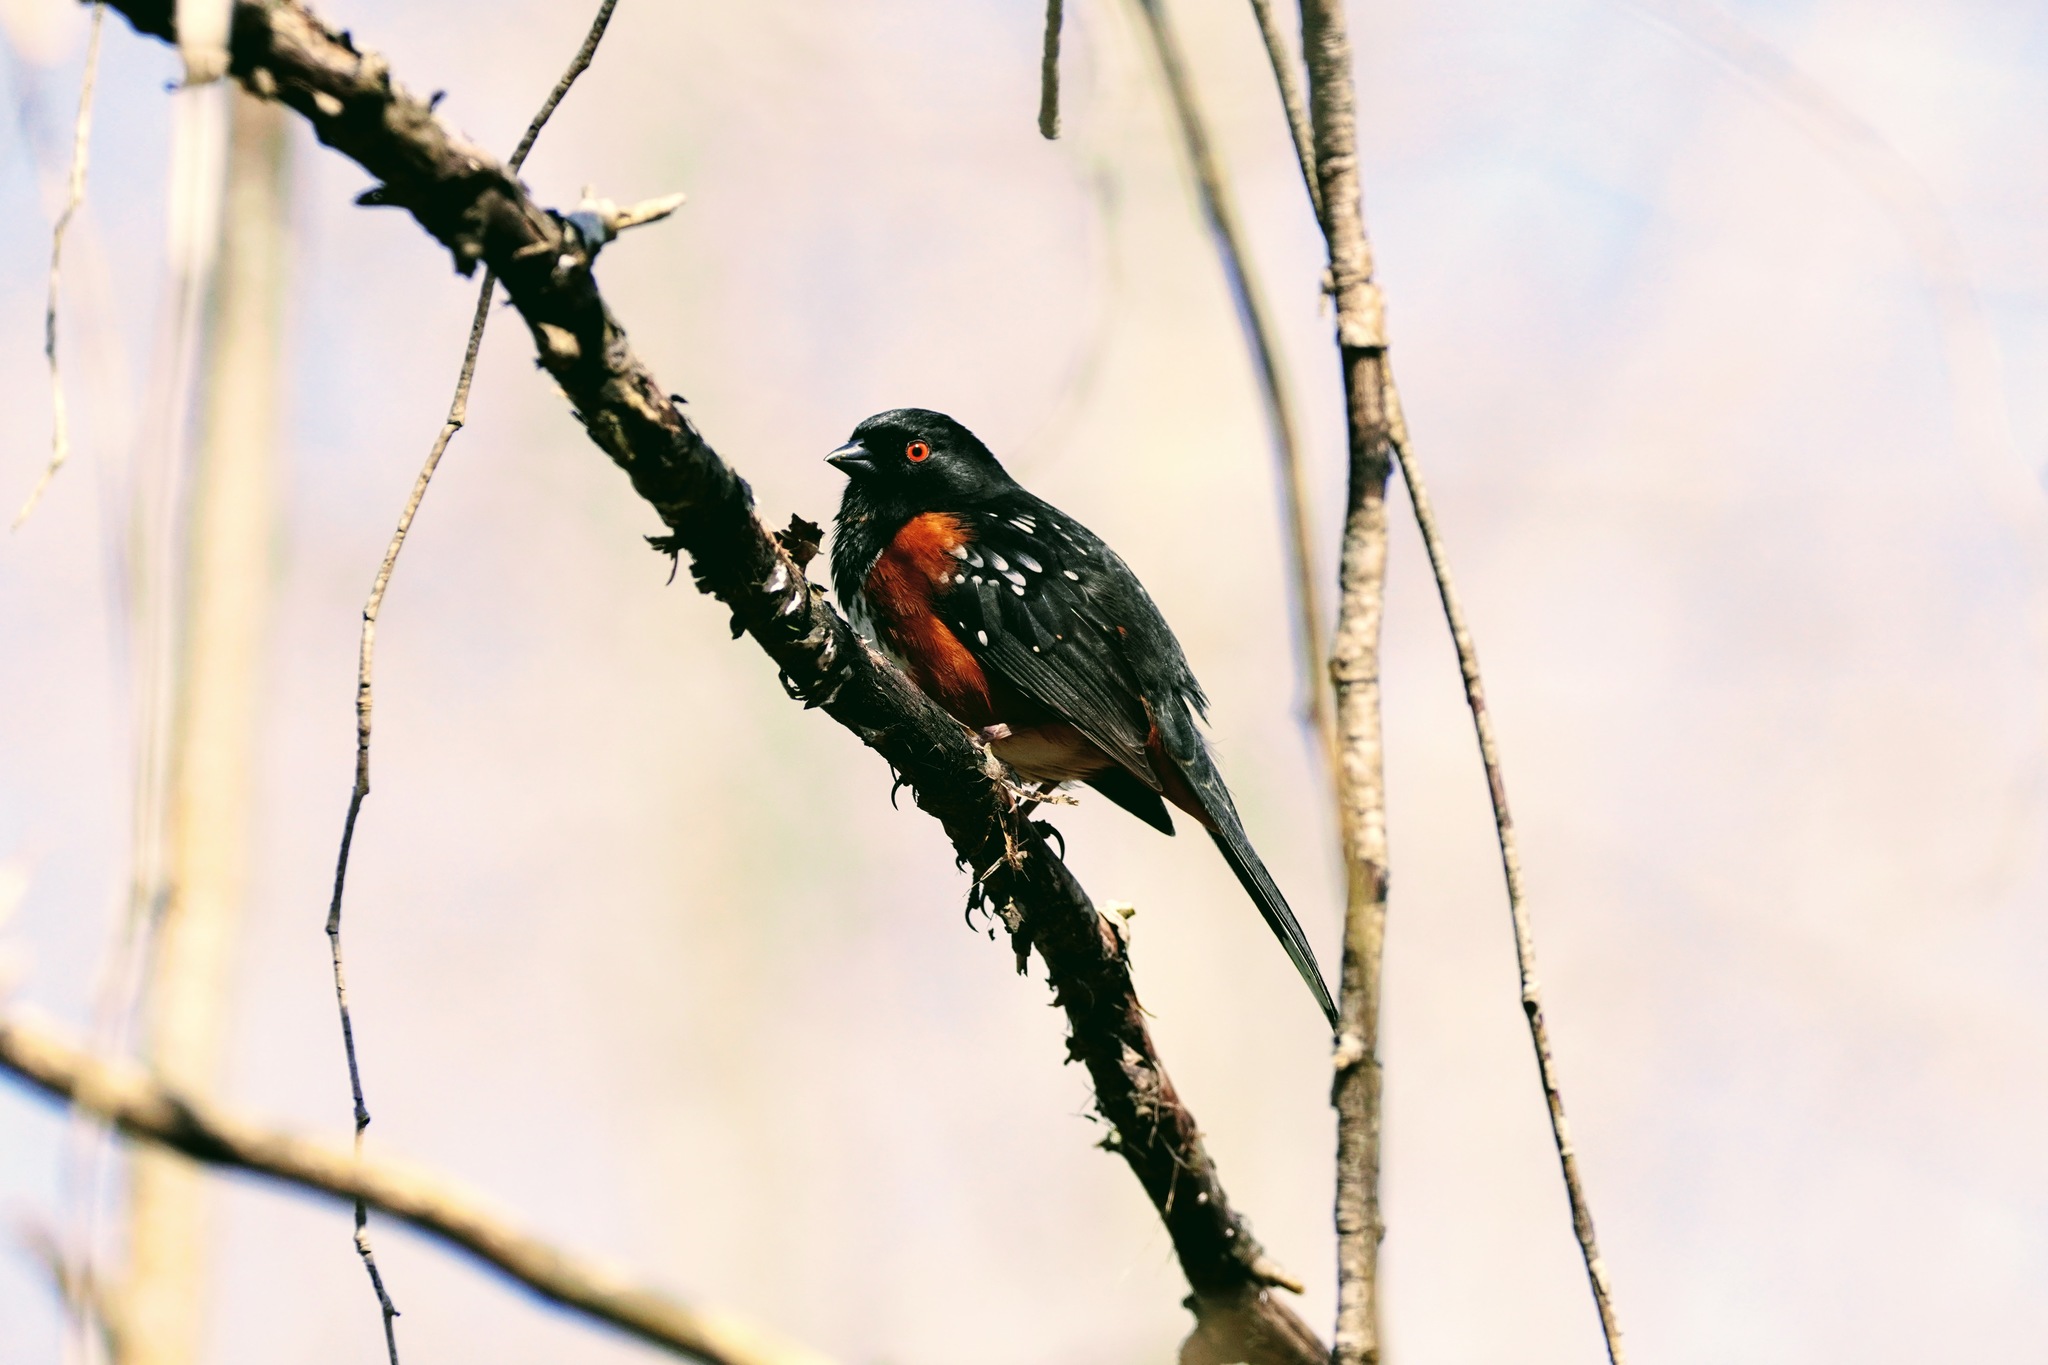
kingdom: Animalia
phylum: Chordata
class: Aves
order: Passeriformes
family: Passerellidae
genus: Pipilo
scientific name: Pipilo maculatus
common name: Spotted towhee
